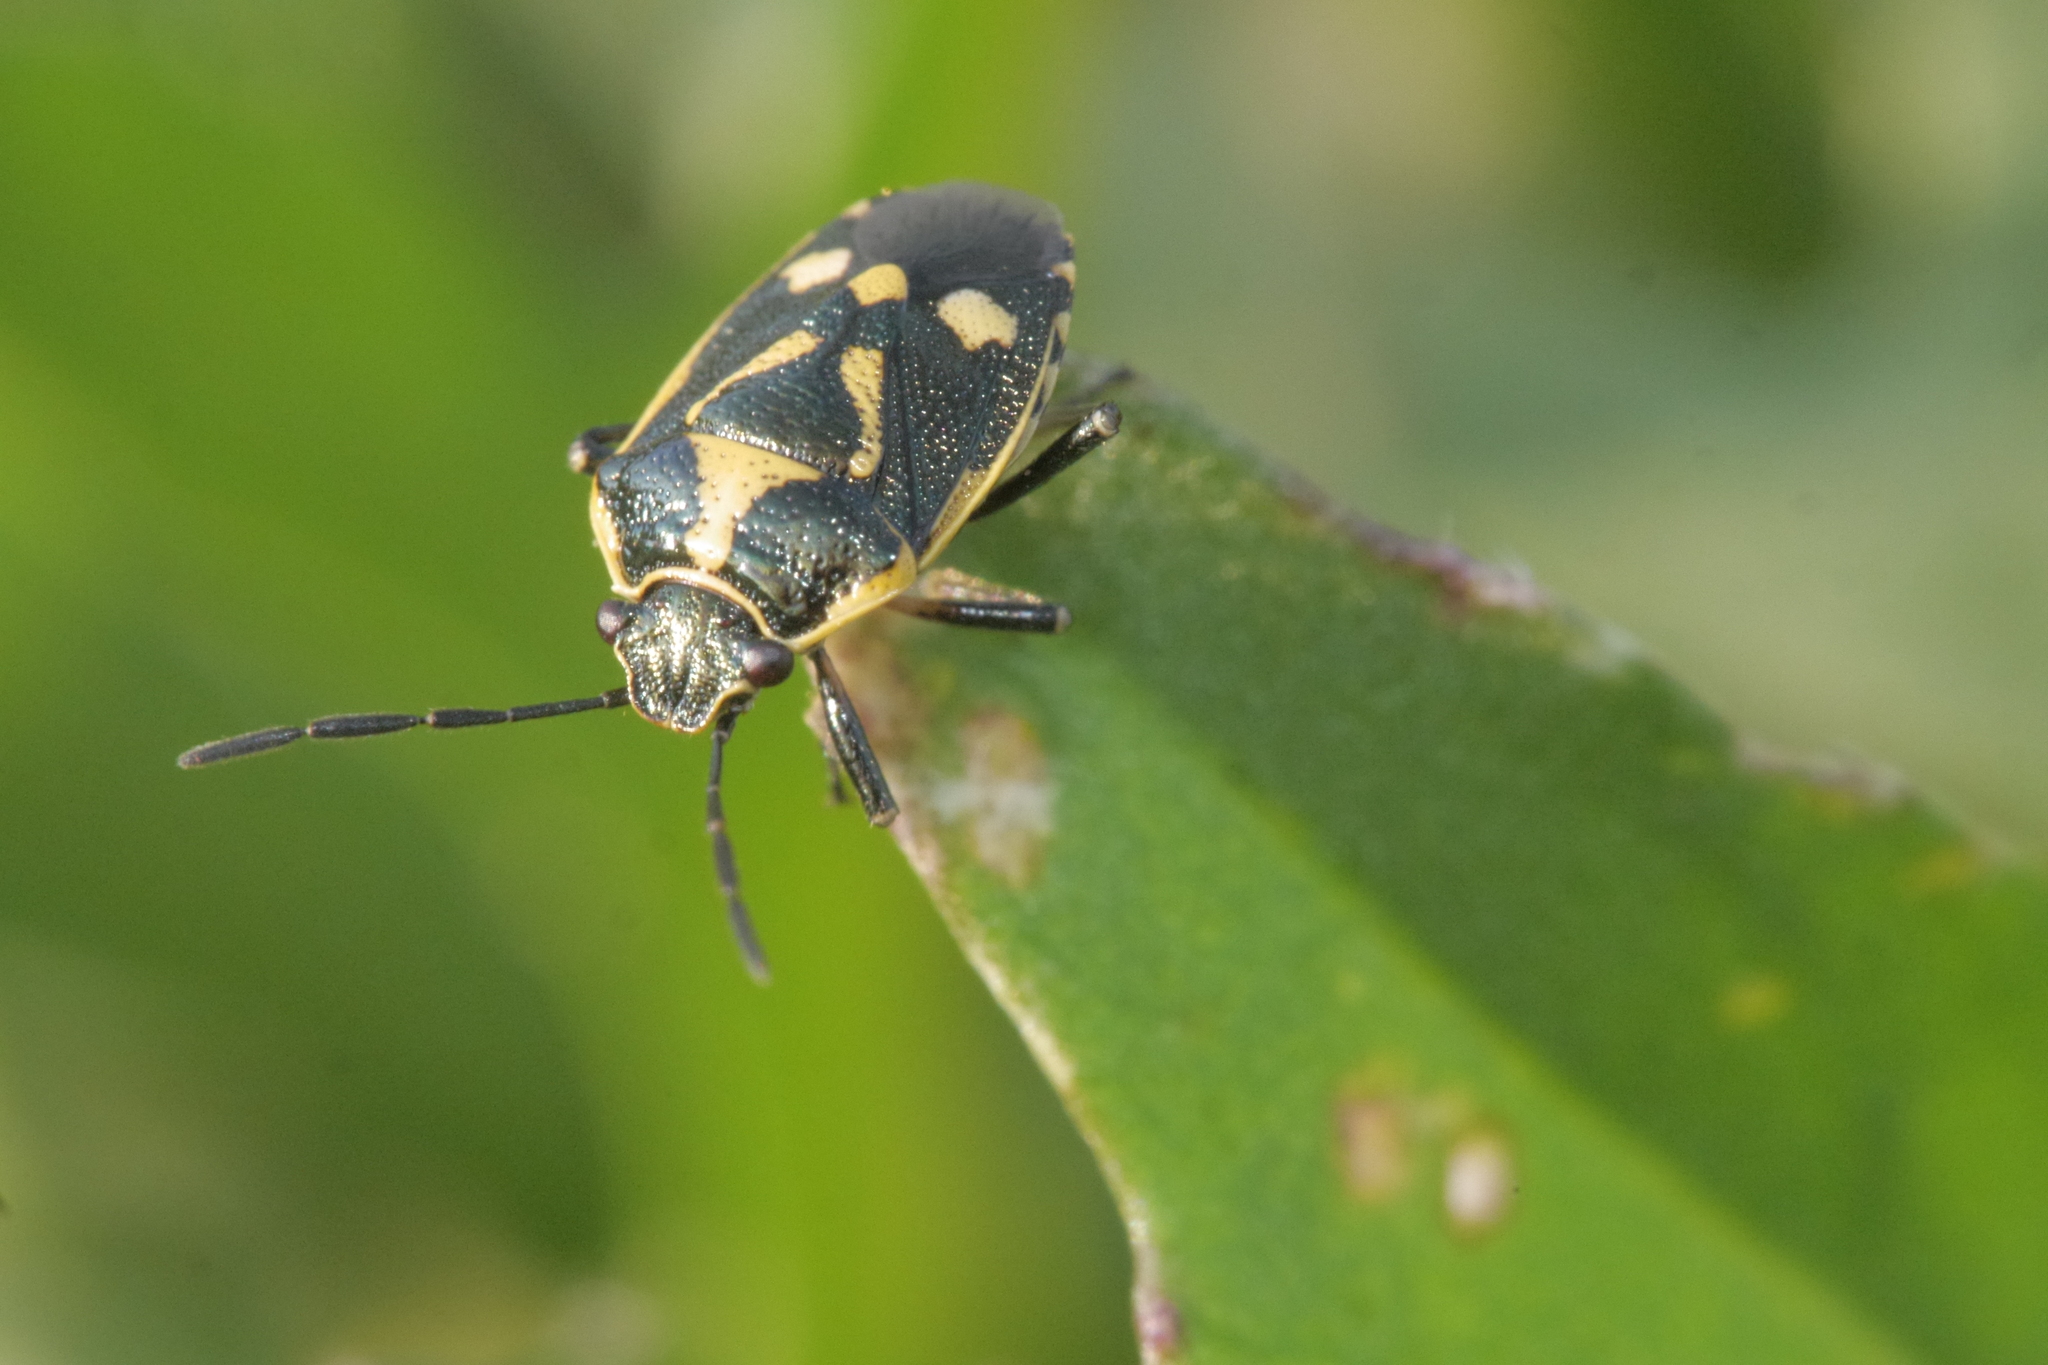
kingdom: Animalia
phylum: Arthropoda
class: Insecta
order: Hemiptera
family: Pentatomidae
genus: Eurydema
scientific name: Eurydema oleracea
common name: Cabbage bug
